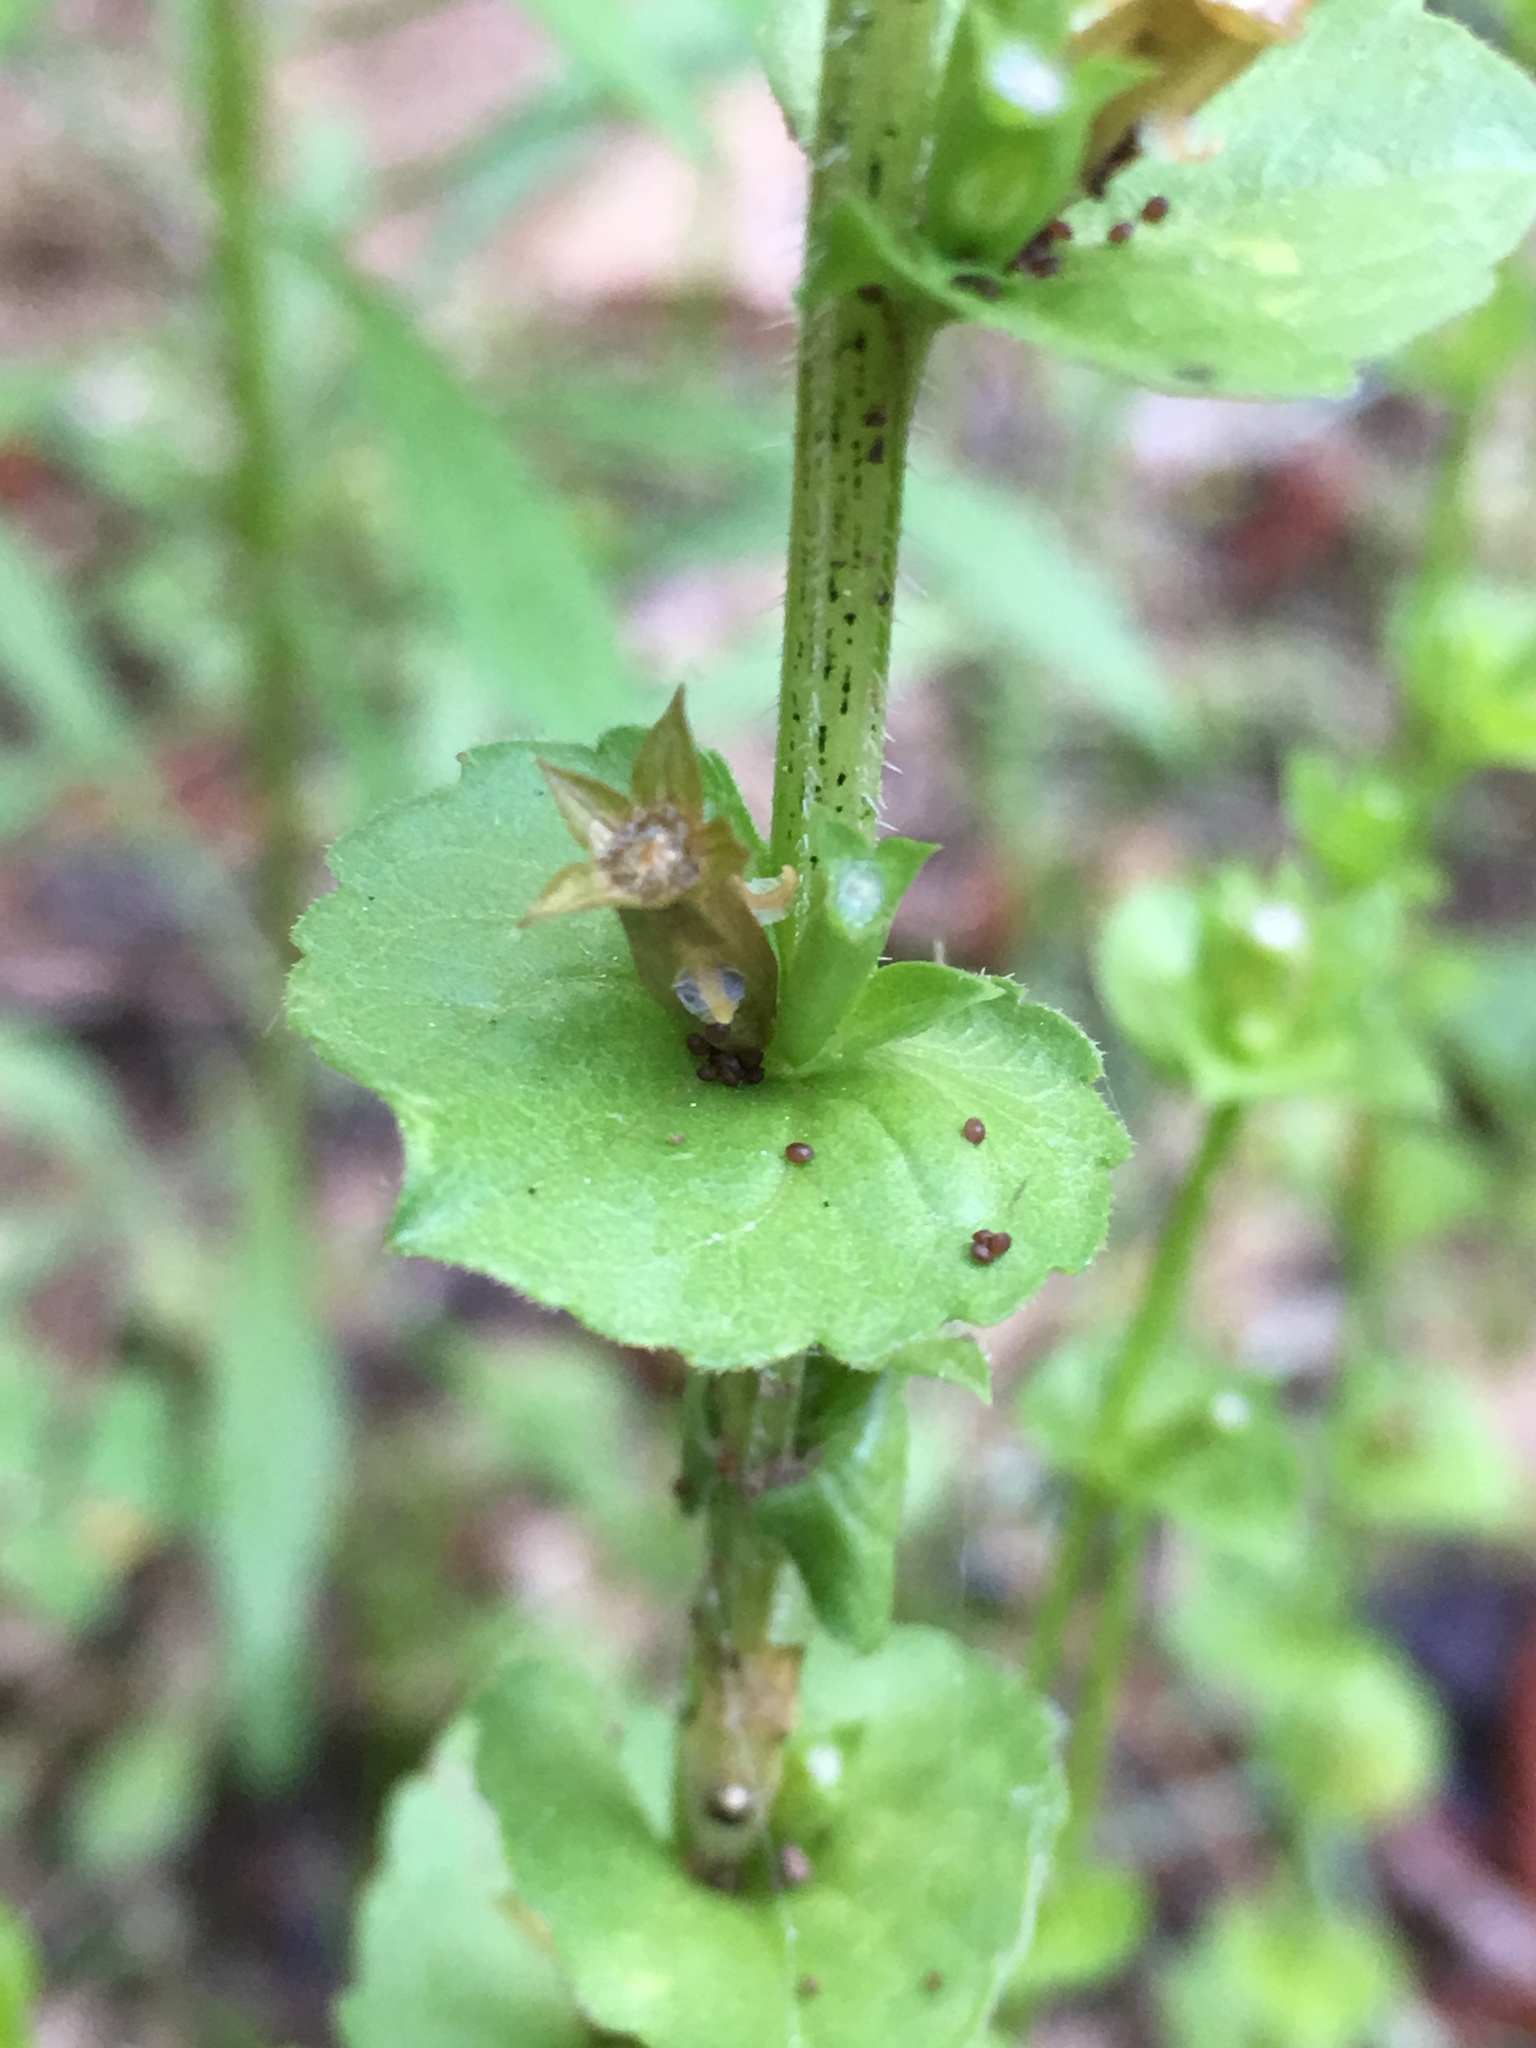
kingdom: Plantae
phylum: Tracheophyta
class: Magnoliopsida
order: Asterales
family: Campanulaceae
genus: Triodanis
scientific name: Triodanis perfoliata
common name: Clasping venus' looking-glass
